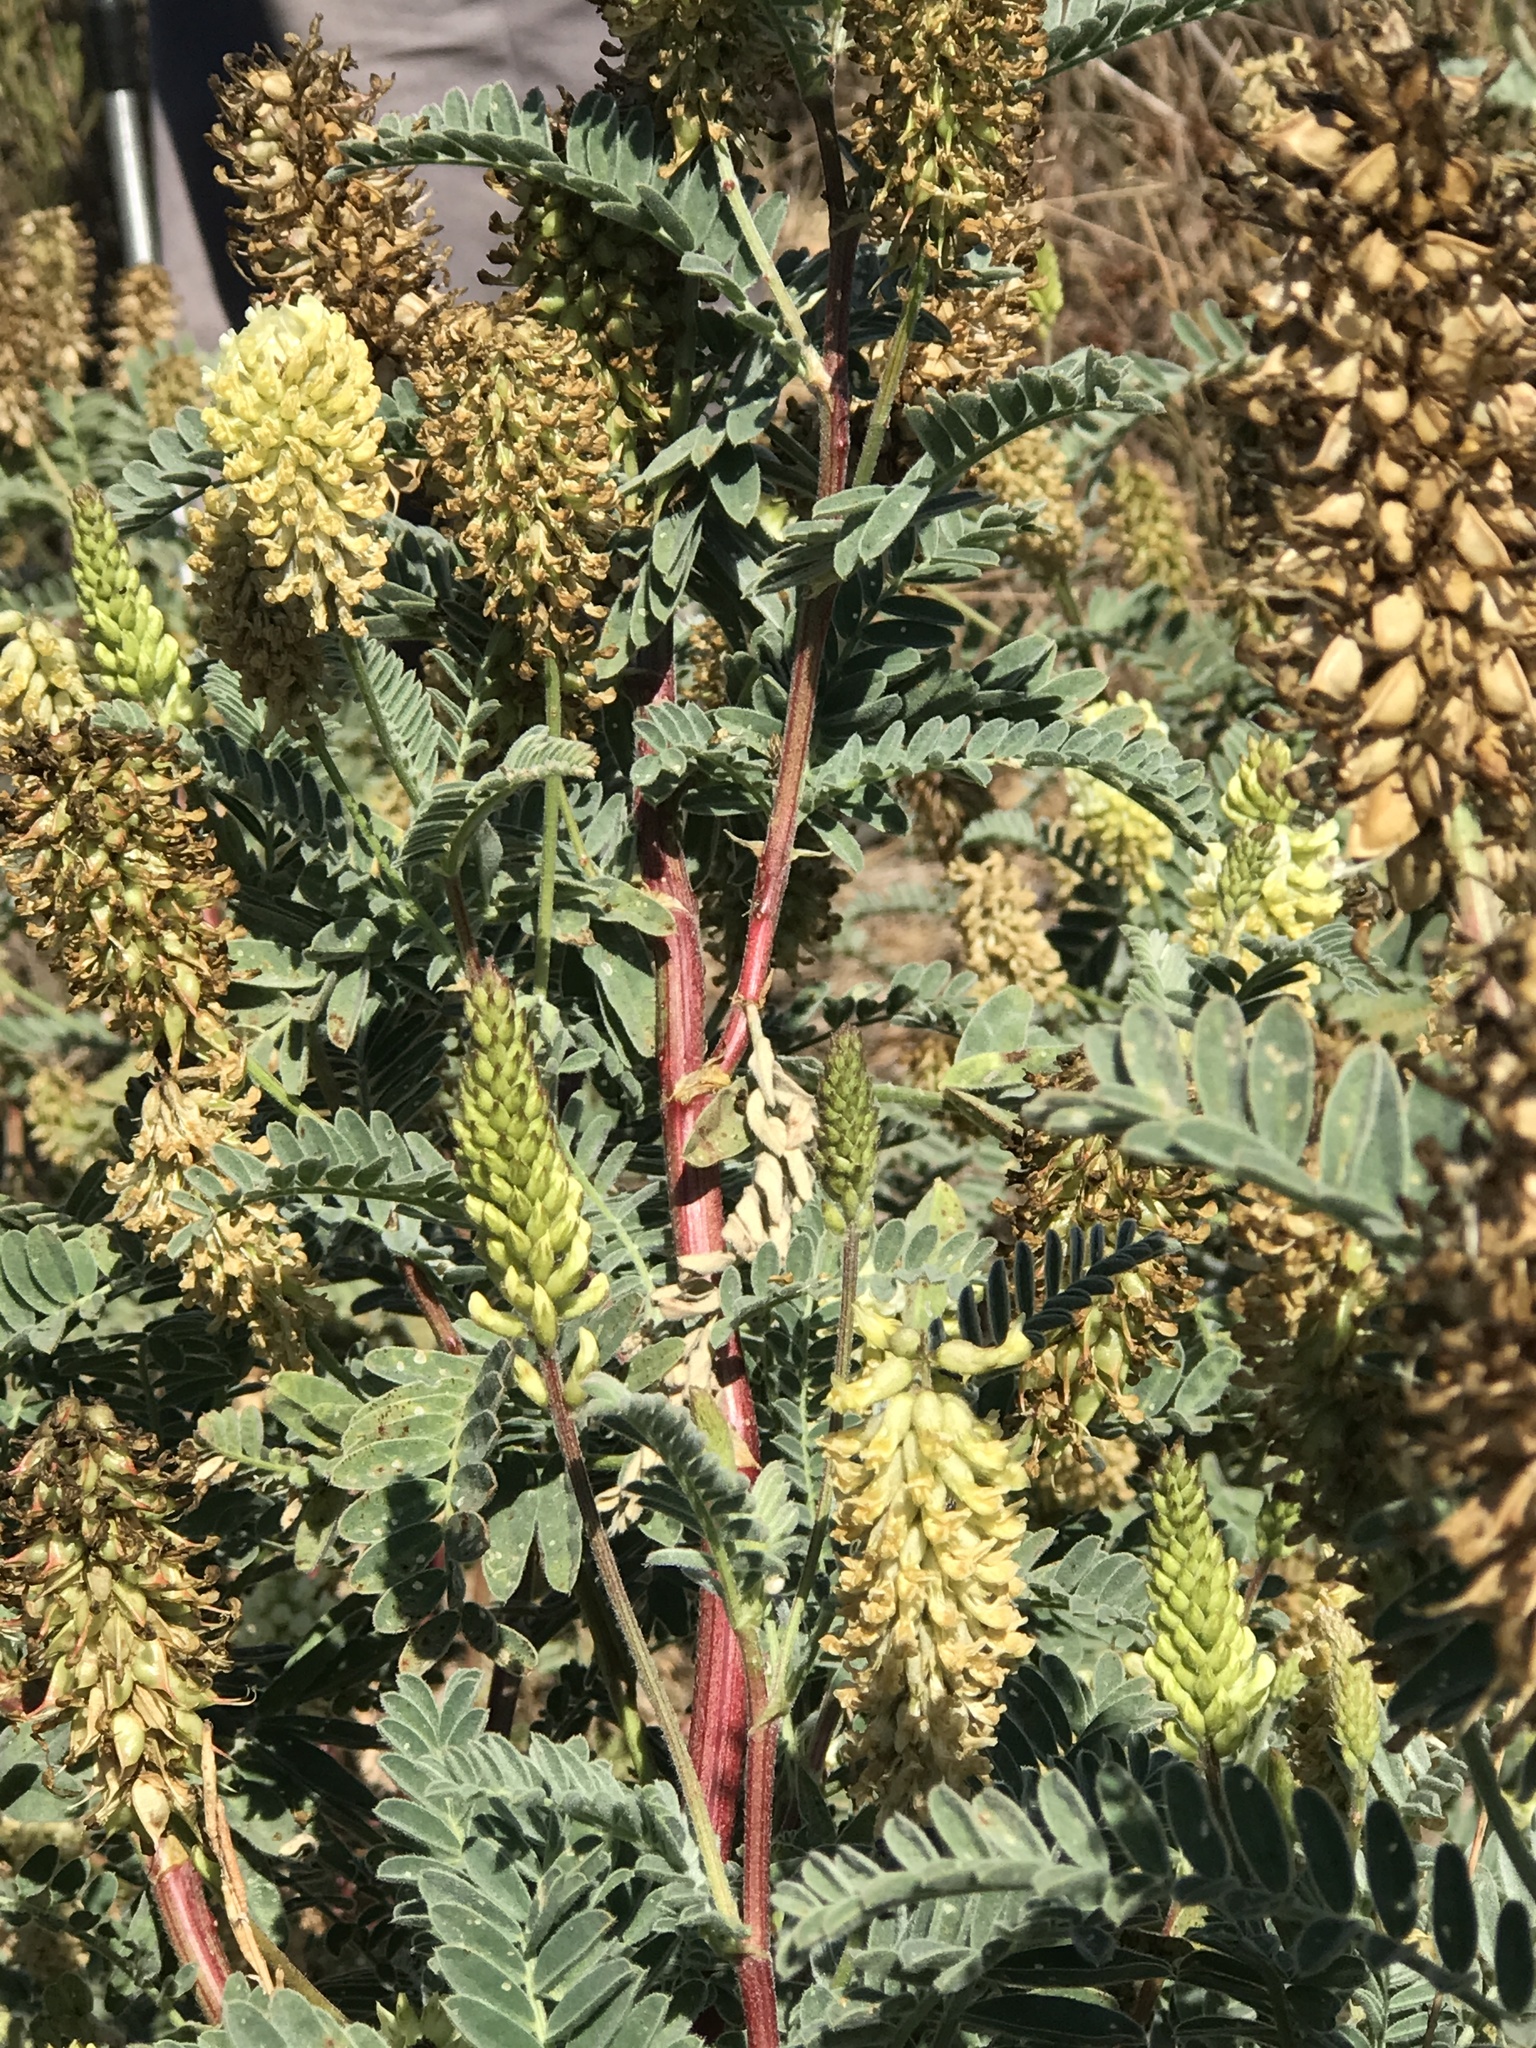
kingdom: Plantae
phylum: Tracheophyta
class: Magnoliopsida
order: Fabales
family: Fabaceae
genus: Astragalus
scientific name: Astragalus pycnostachyus
